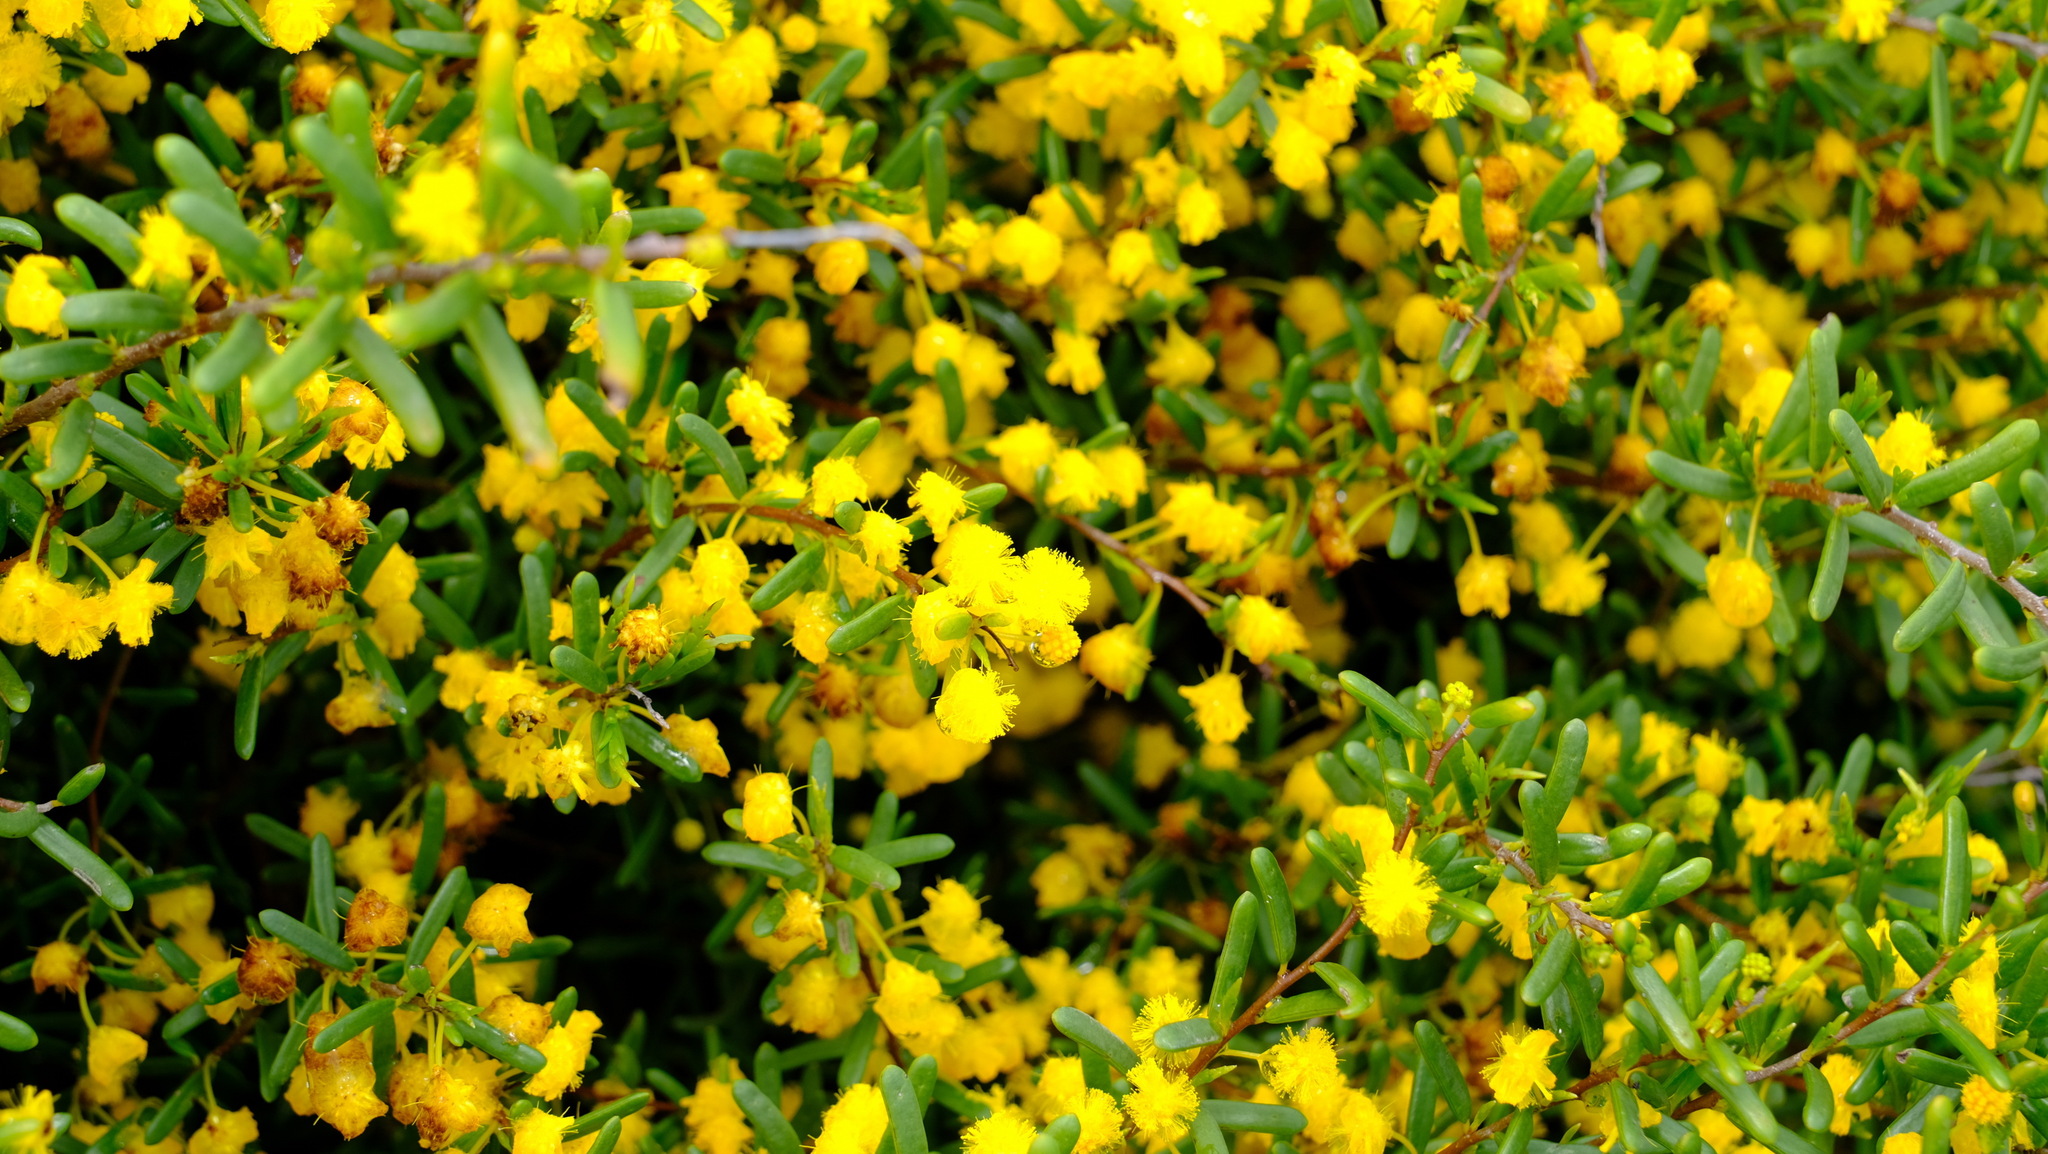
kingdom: Plantae
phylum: Tracheophyta
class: Magnoliopsida
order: Fabales
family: Fabaceae
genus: Acacia
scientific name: Acacia spathulifolia
